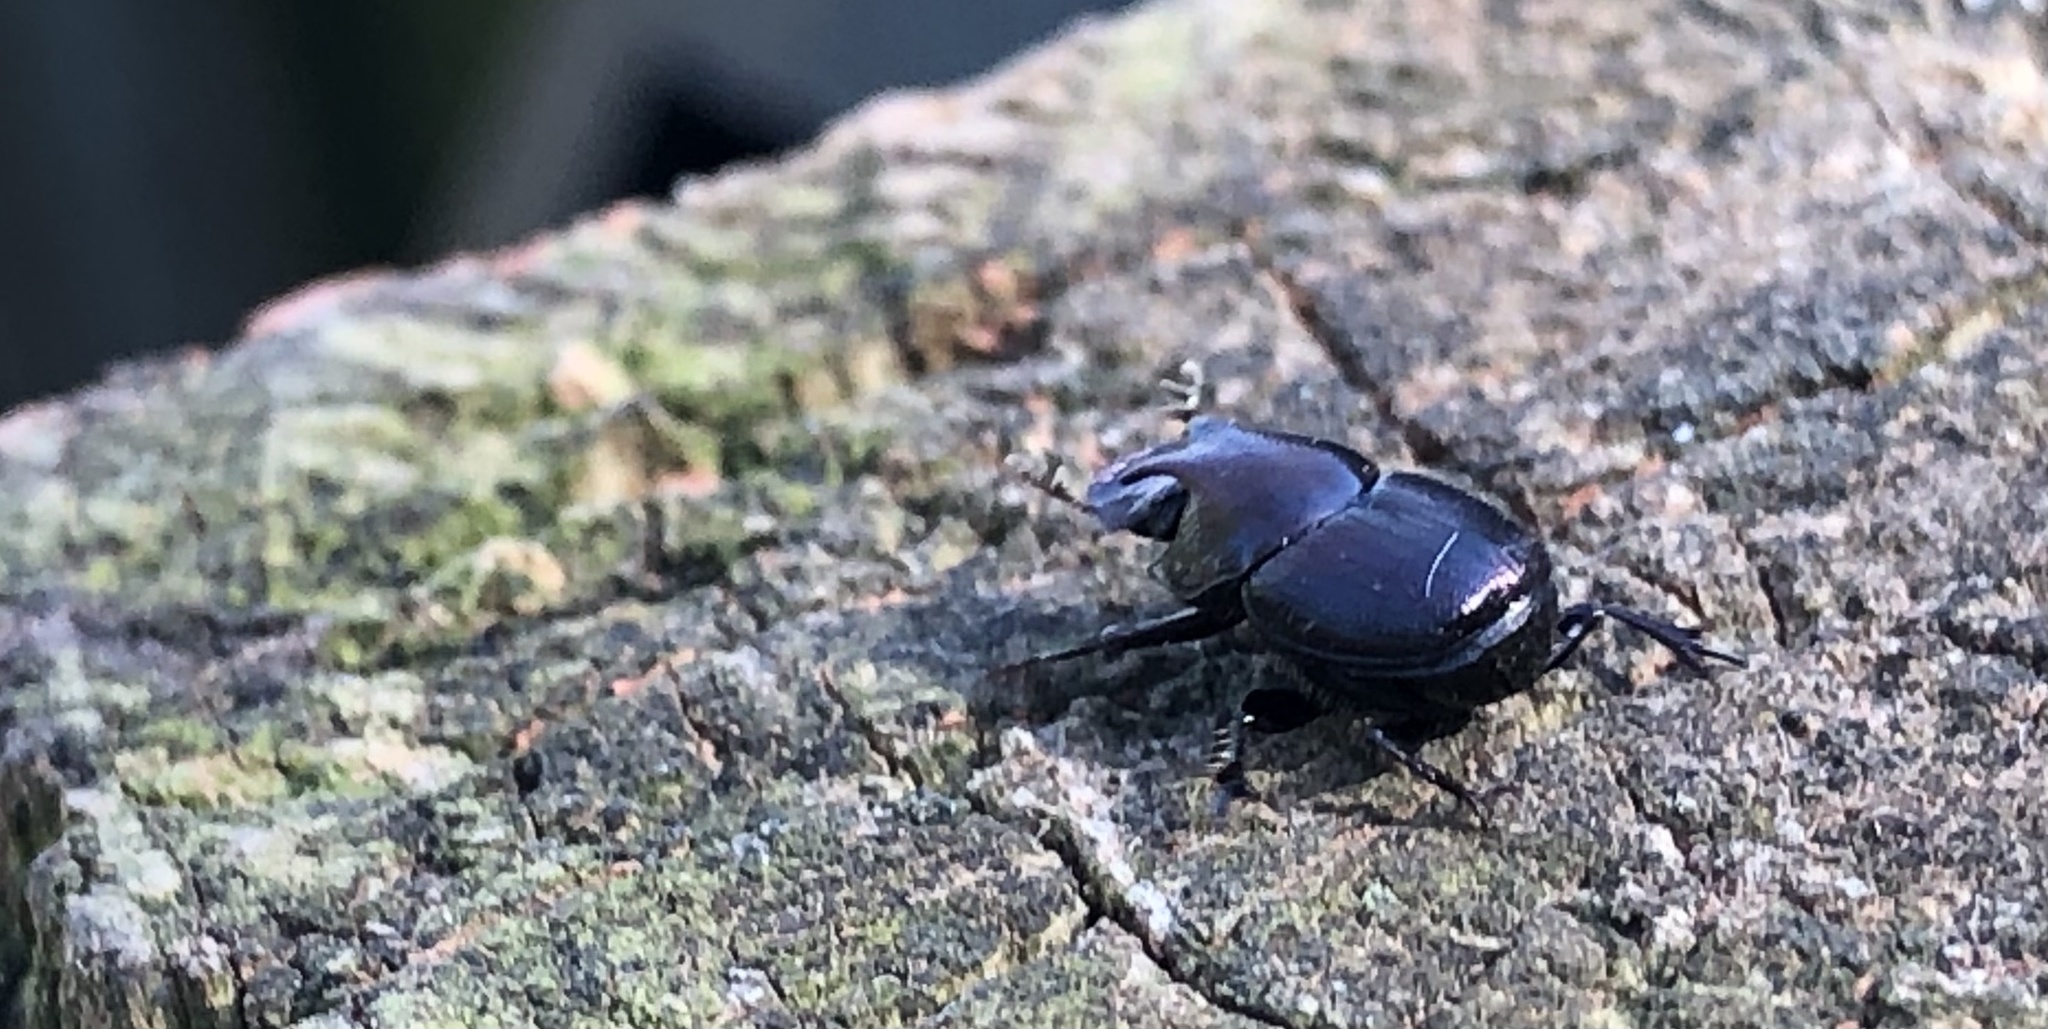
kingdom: Animalia
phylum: Arthropoda
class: Insecta
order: Coleoptera
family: Scarabaeidae
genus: Onthophagus
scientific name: Onthophagus orpheus
